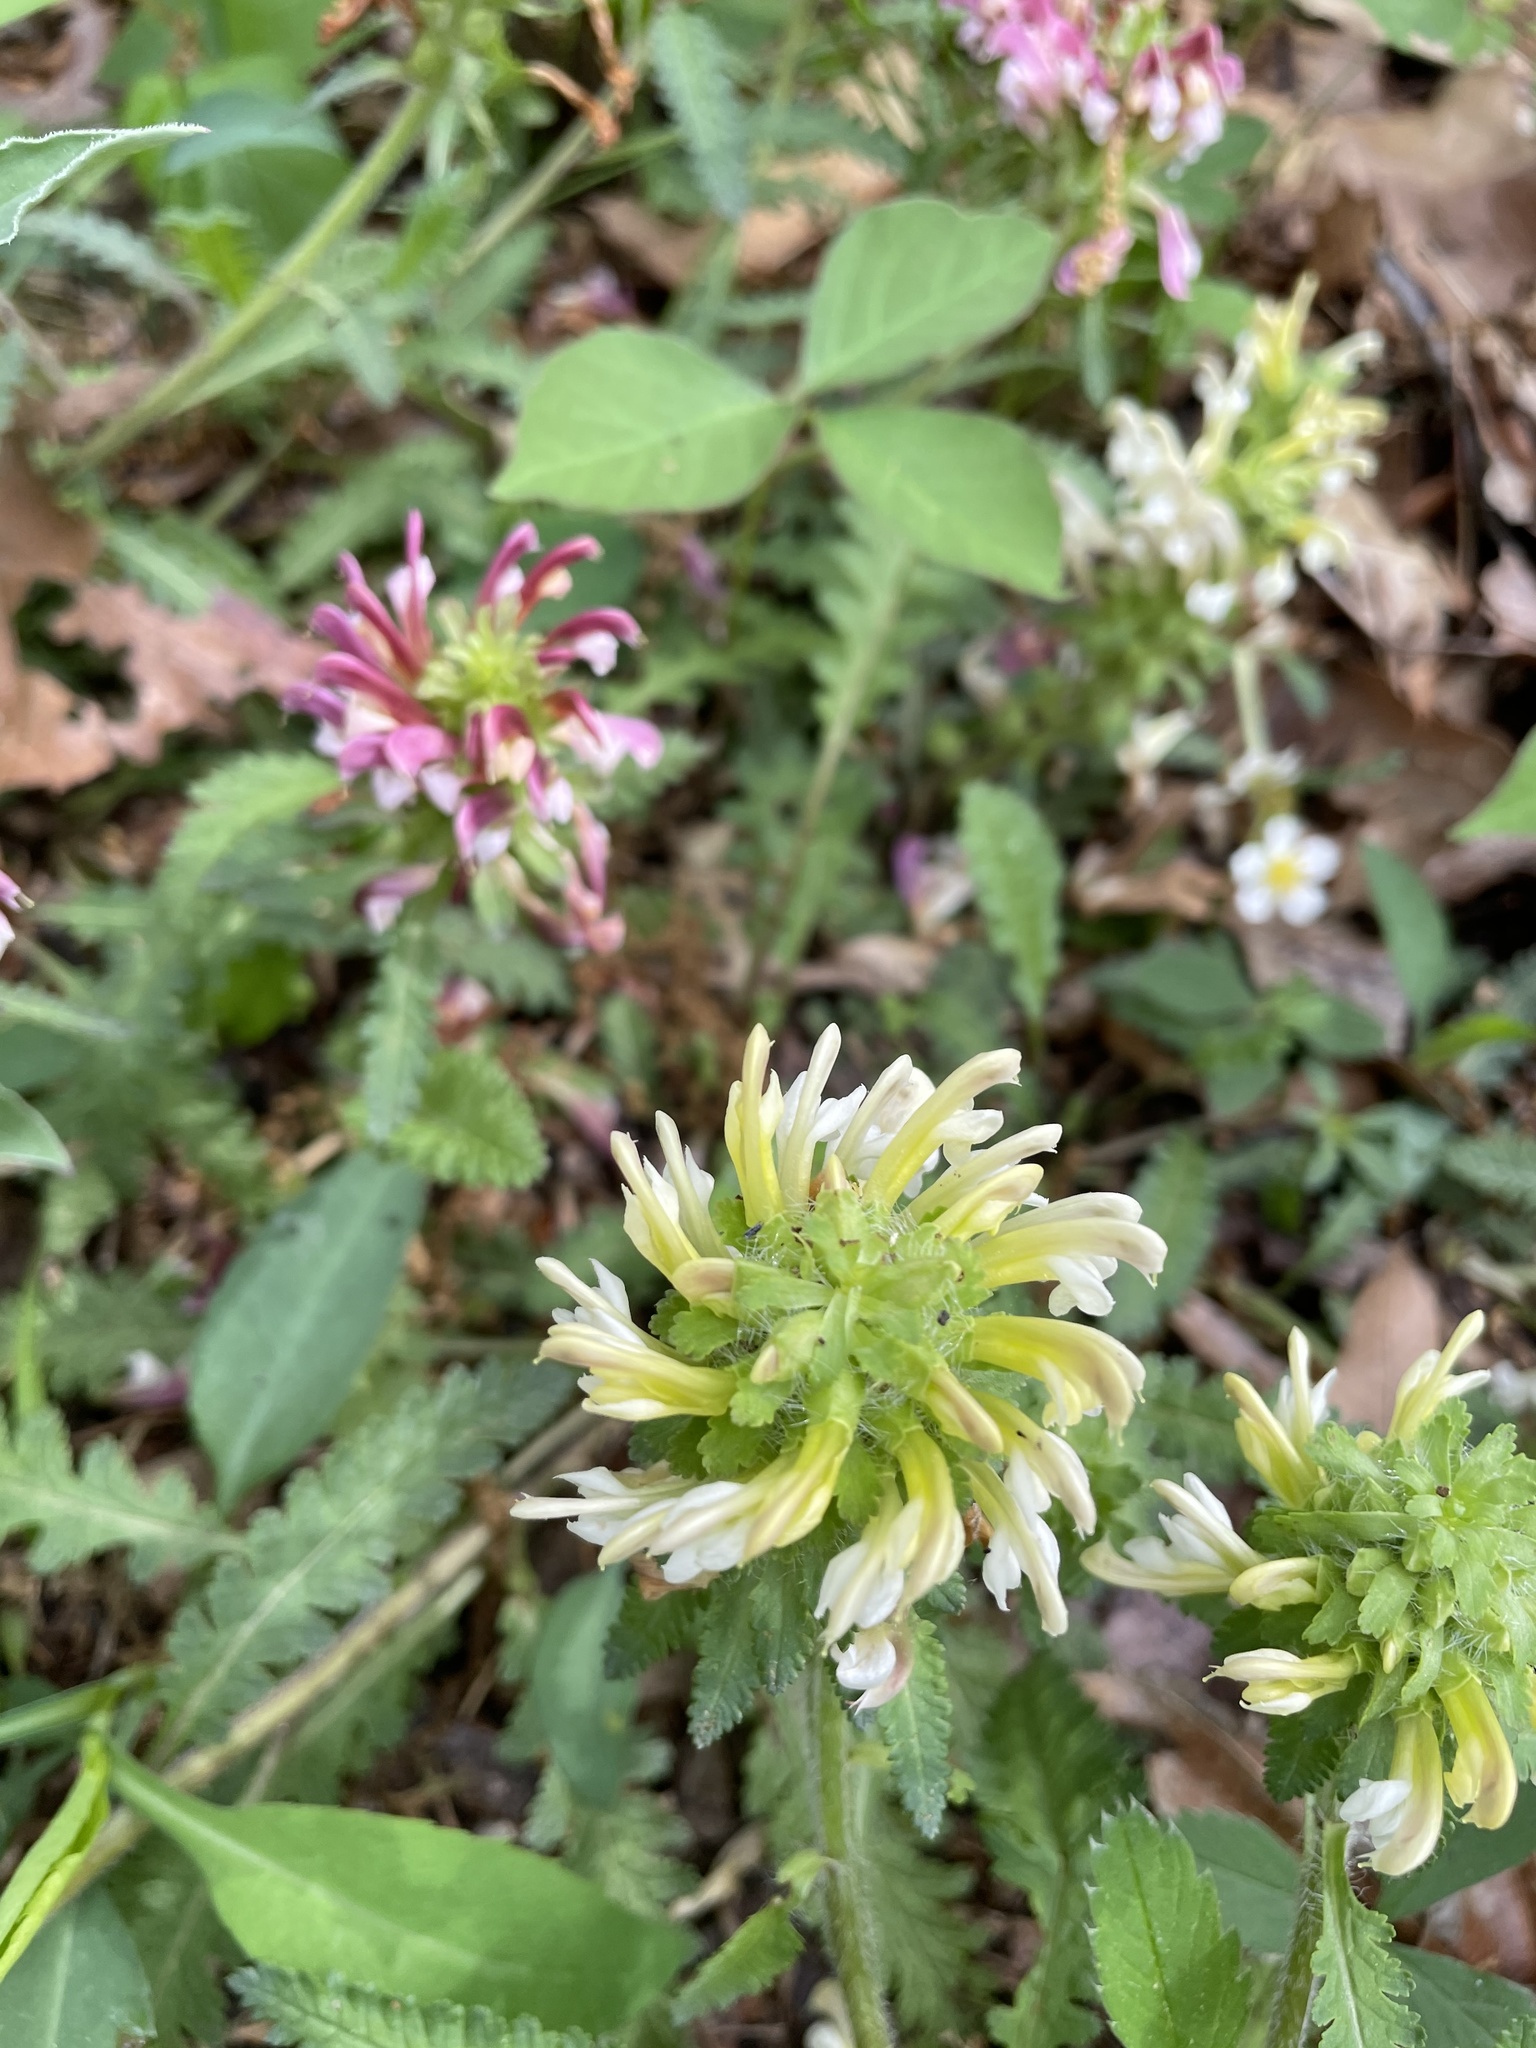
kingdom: Plantae
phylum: Tracheophyta
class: Magnoliopsida
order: Lamiales
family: Orobanchaceae
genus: Pedicularis
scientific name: Pedicularis canadensis
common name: Early lousewort
